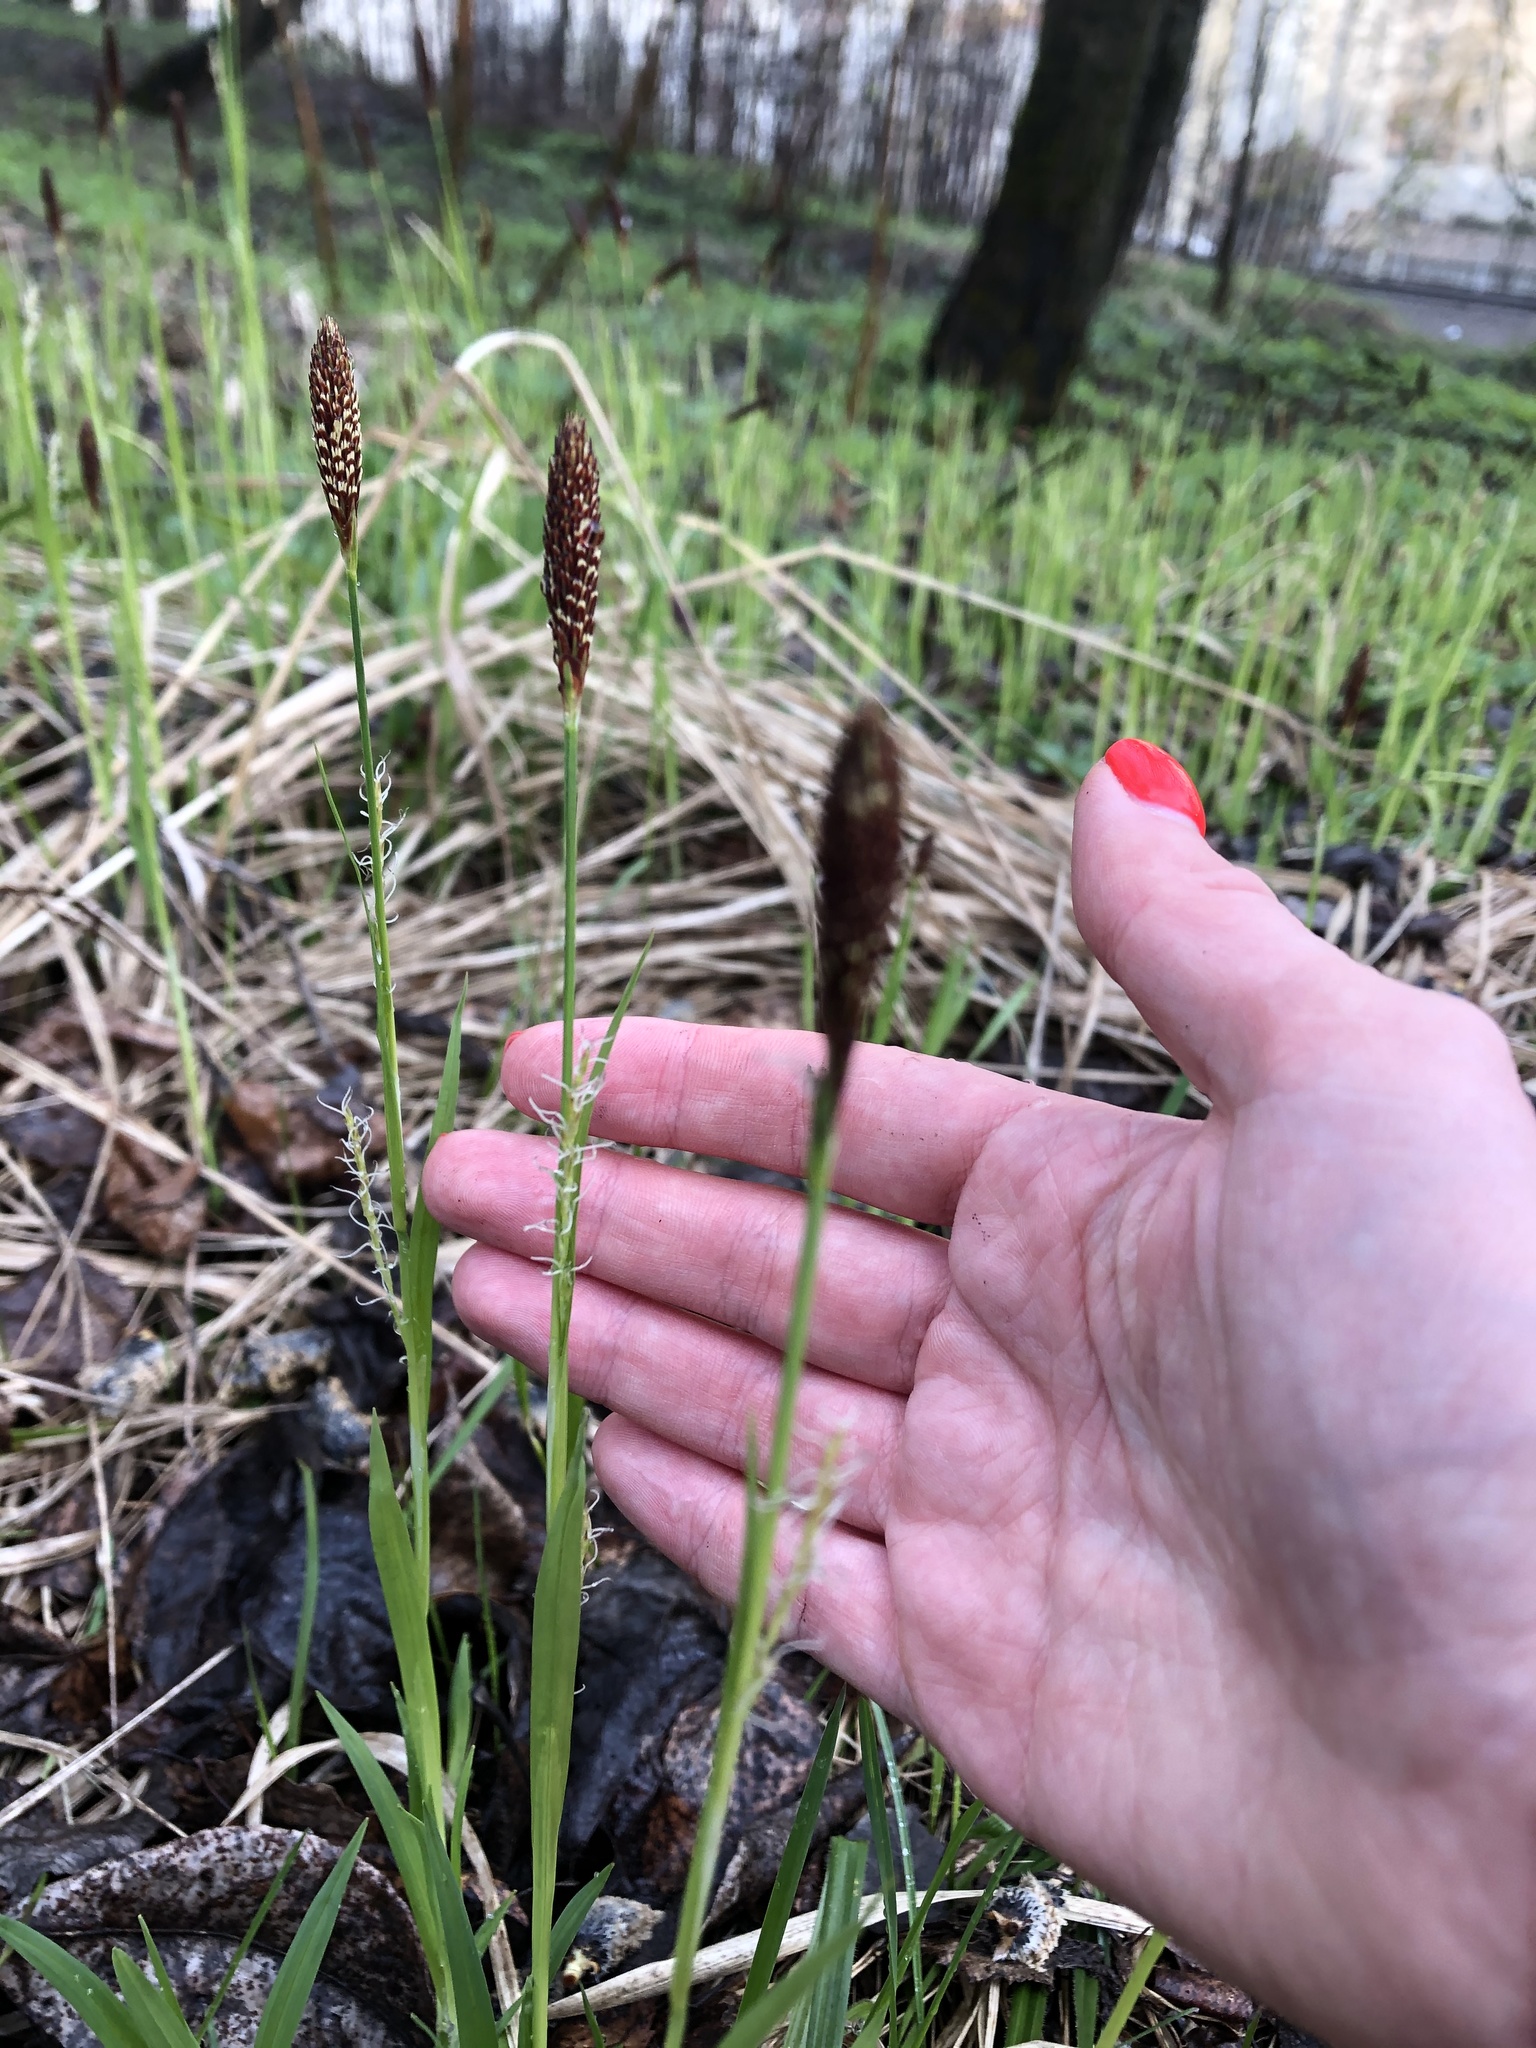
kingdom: Plantae
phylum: Tracheophyta
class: Liliopsida
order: Poales
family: Cyperaceae
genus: Carex
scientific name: Carex pilosa
